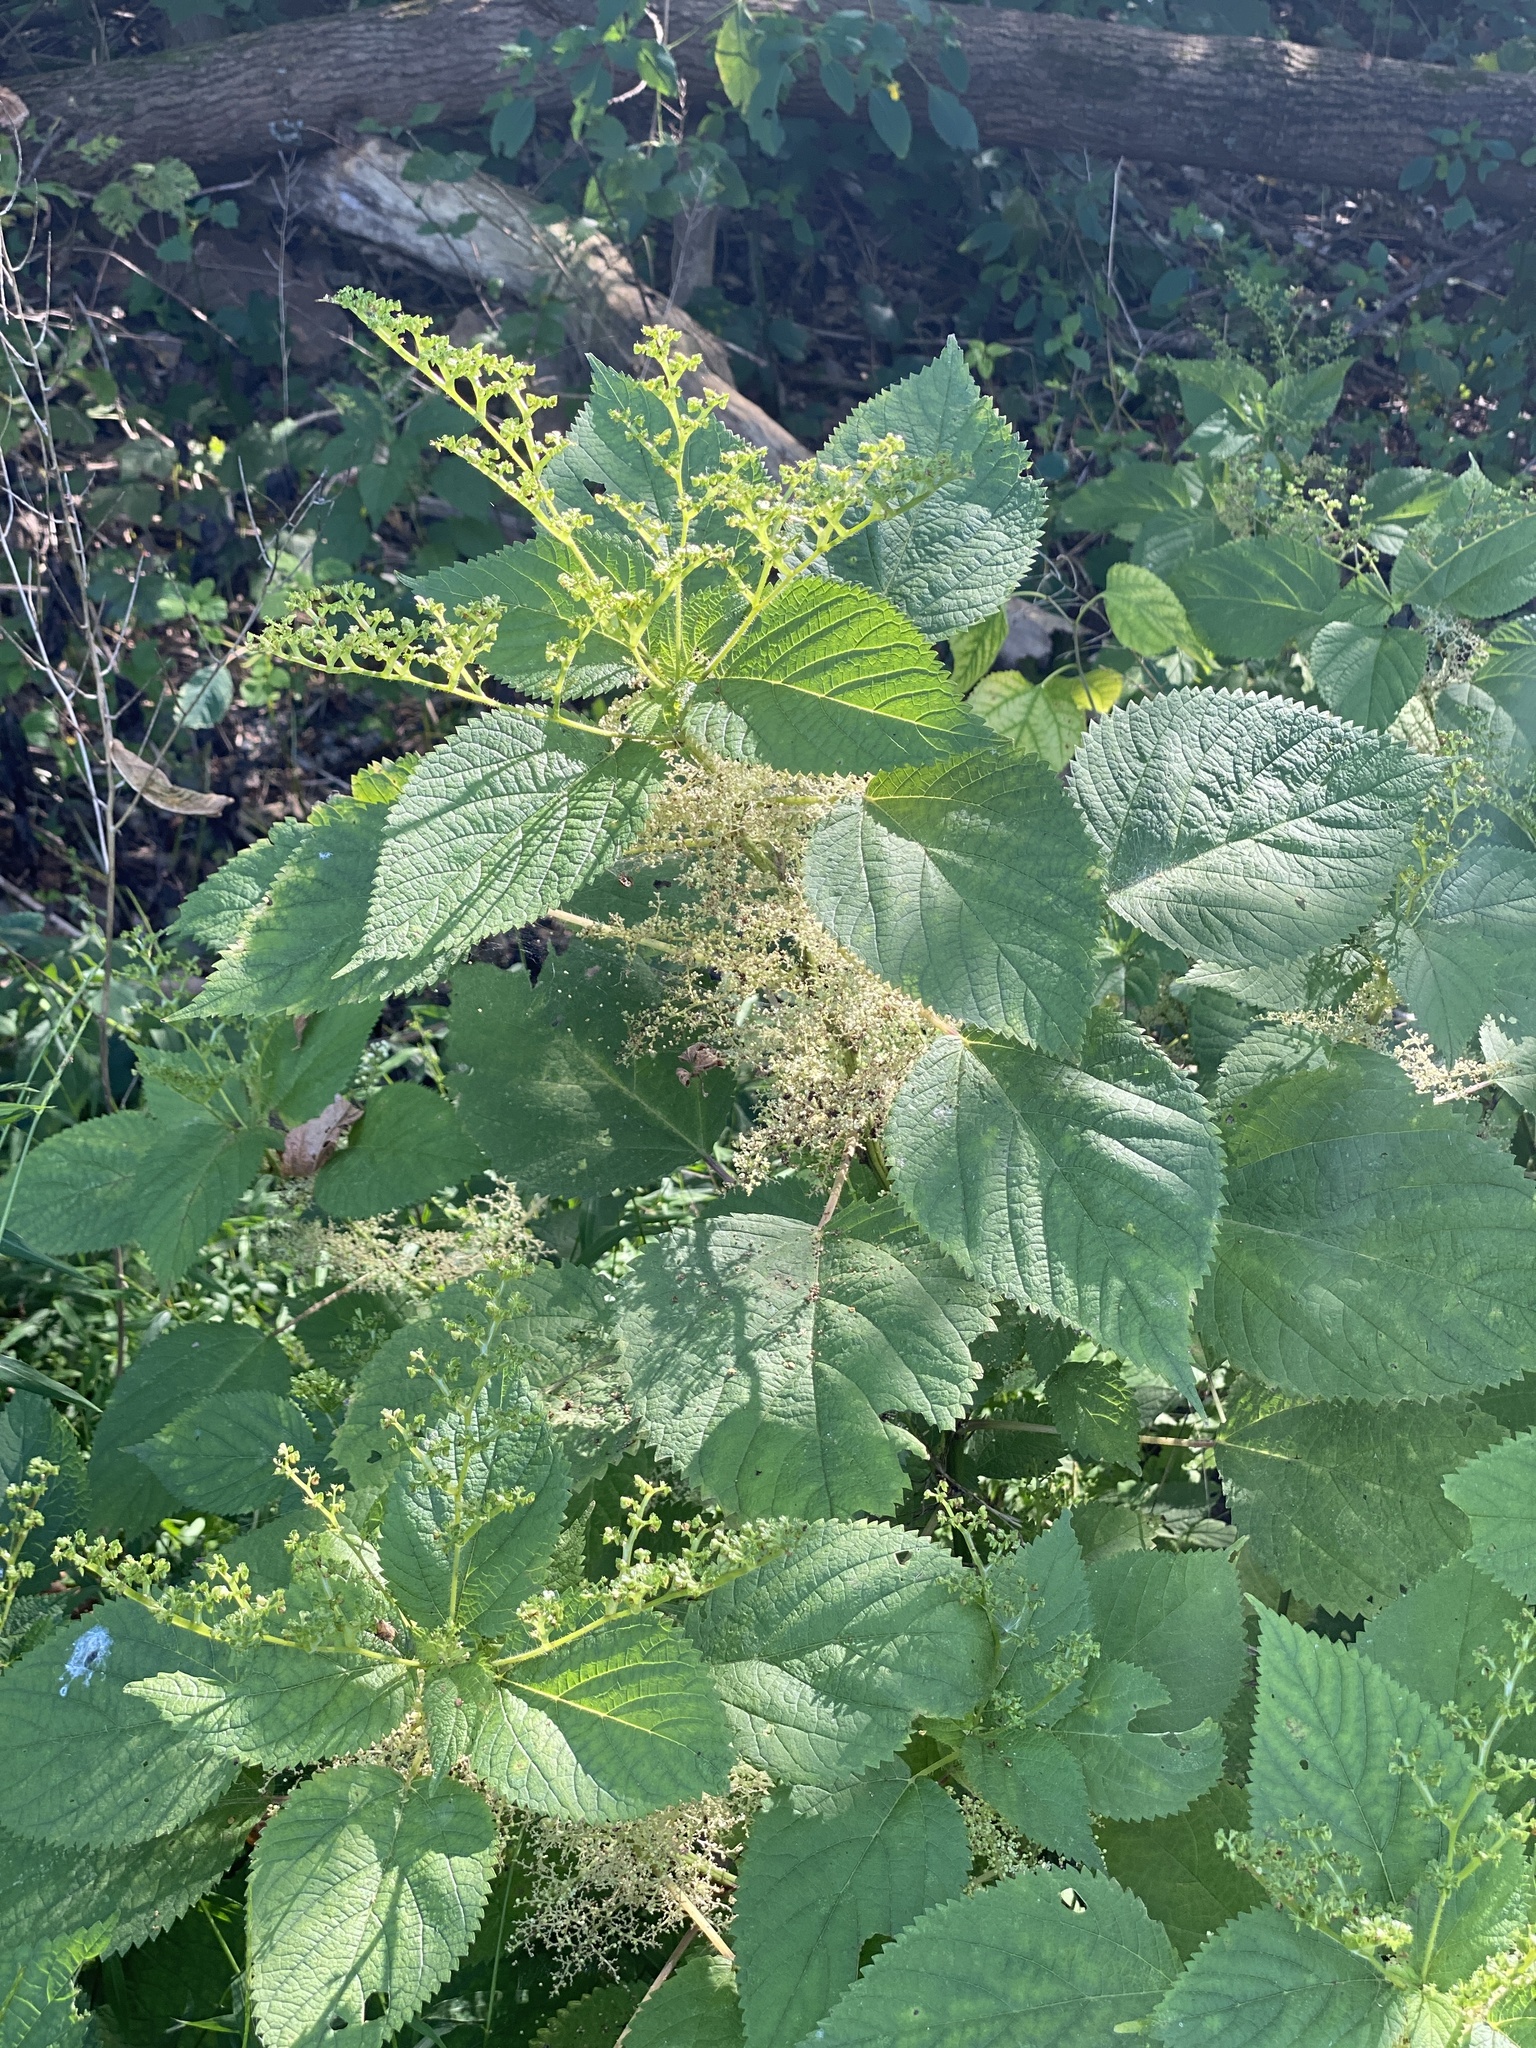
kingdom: Plantae
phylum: Tracheophyta
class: Magnoliopsida
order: Rosales
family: Urticaceae
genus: Laportea
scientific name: Laportea canadensis
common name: Canada nettle
